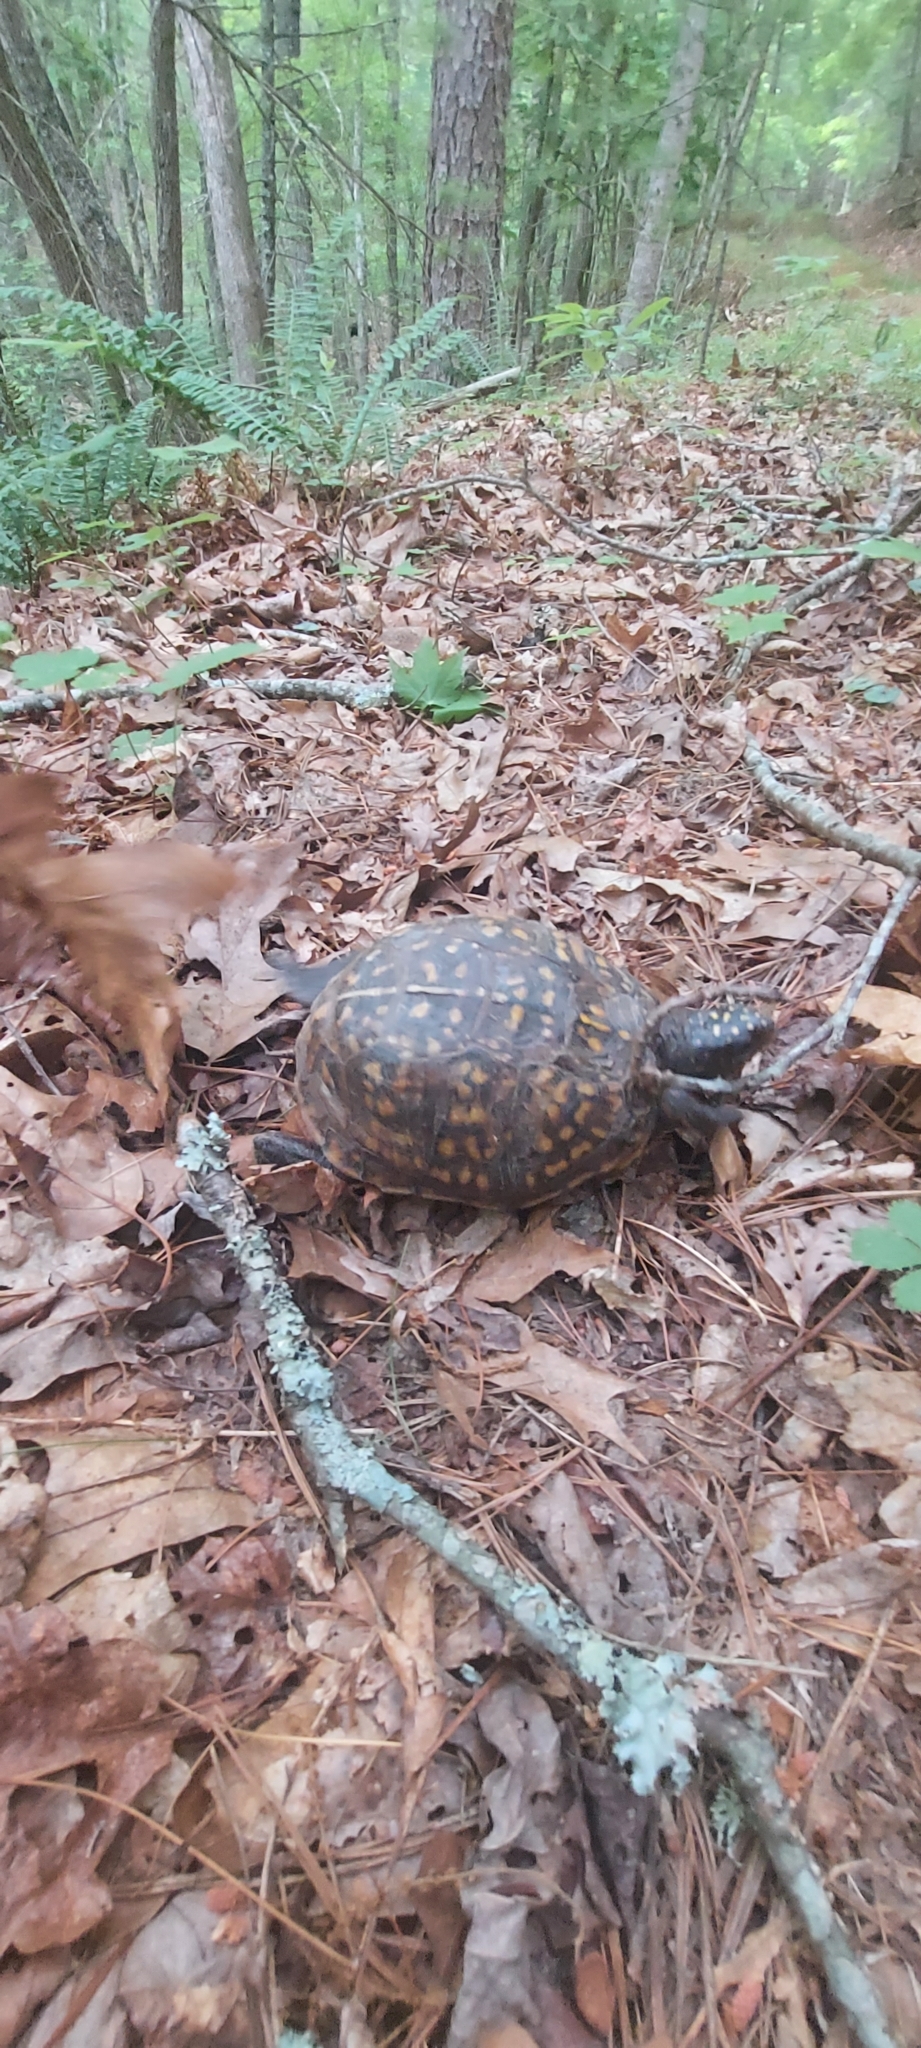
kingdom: Animalia
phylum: Chordata
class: Testudines
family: Emydidae
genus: Terrapene
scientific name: Terrapene carolina
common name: Common box turtle
